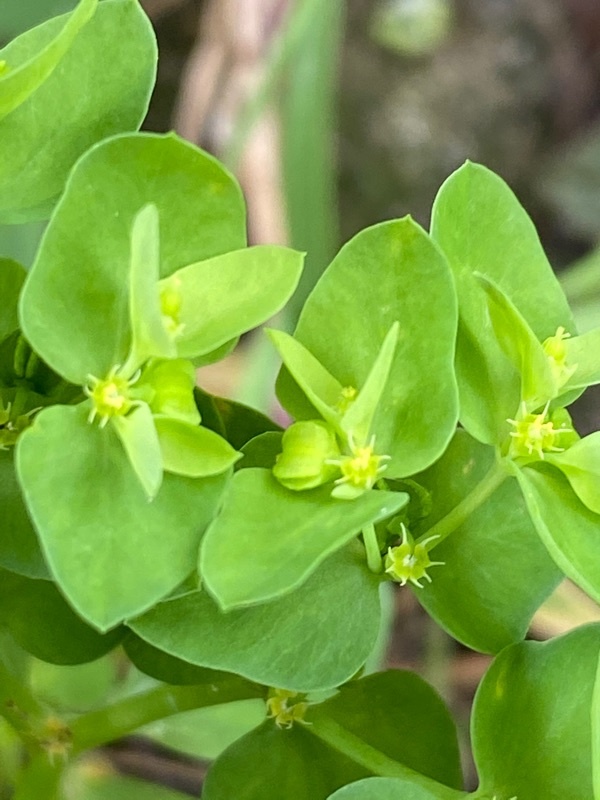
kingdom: Plantae
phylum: Tracheophyta
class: Magnoliopsida
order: Malpighiales
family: Euphorbiaceae
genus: Euphorbia
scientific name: Euphorbia peplus
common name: Petty spurge
